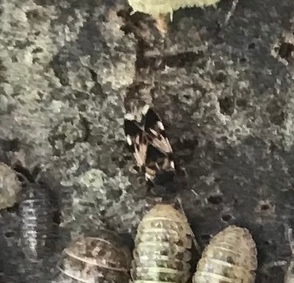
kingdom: Animalia
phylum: Arthropoda
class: Insecta
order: Hemiptera
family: Rhyparochromidae
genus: Scolopostethus
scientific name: Scolopostethus
